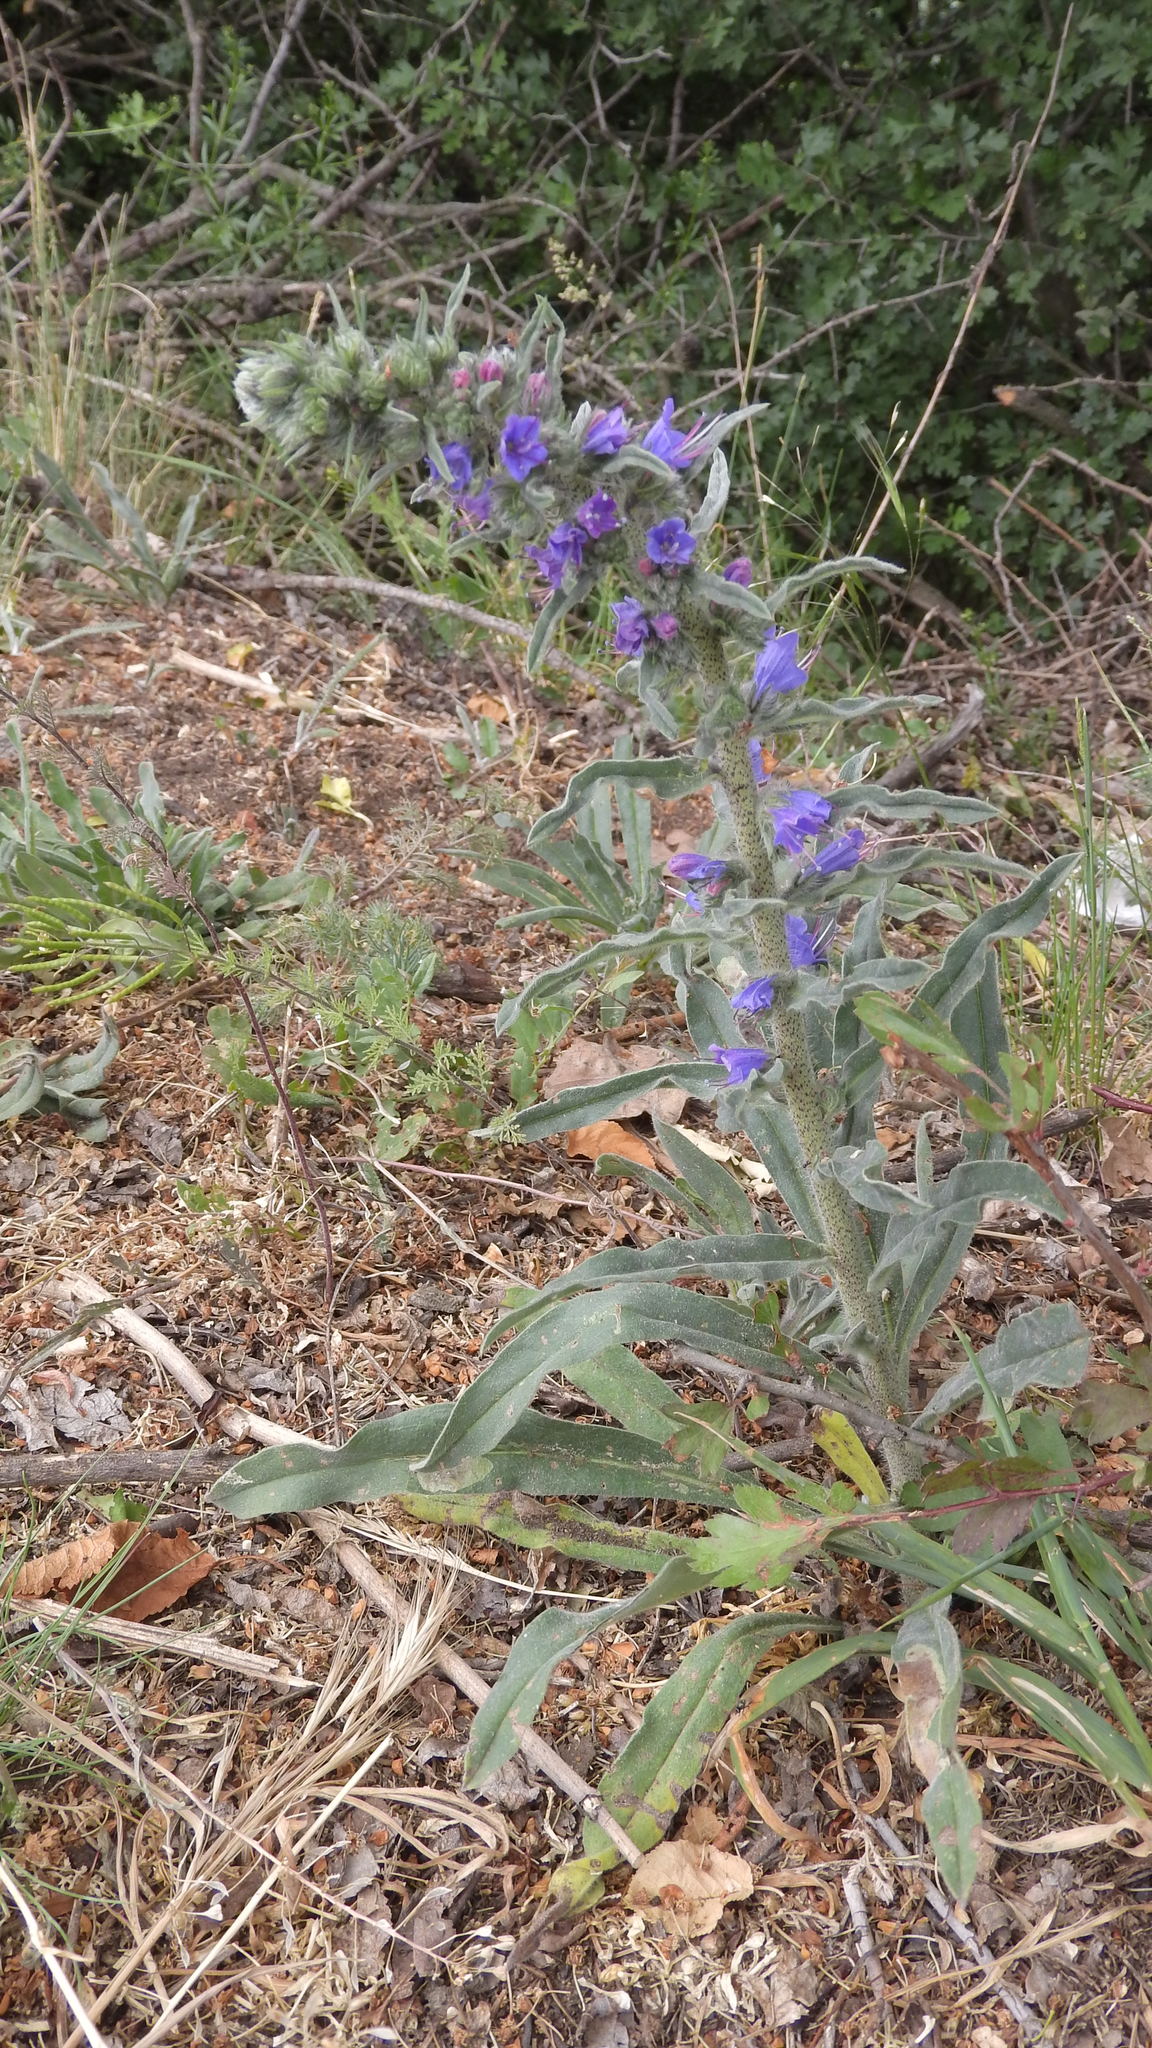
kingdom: Plantae
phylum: Tracheophyta
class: Magnoliopsida
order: Boraginales
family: Boraginaceae
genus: Echium
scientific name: Echium vulgare
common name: Common viper's bugloss
